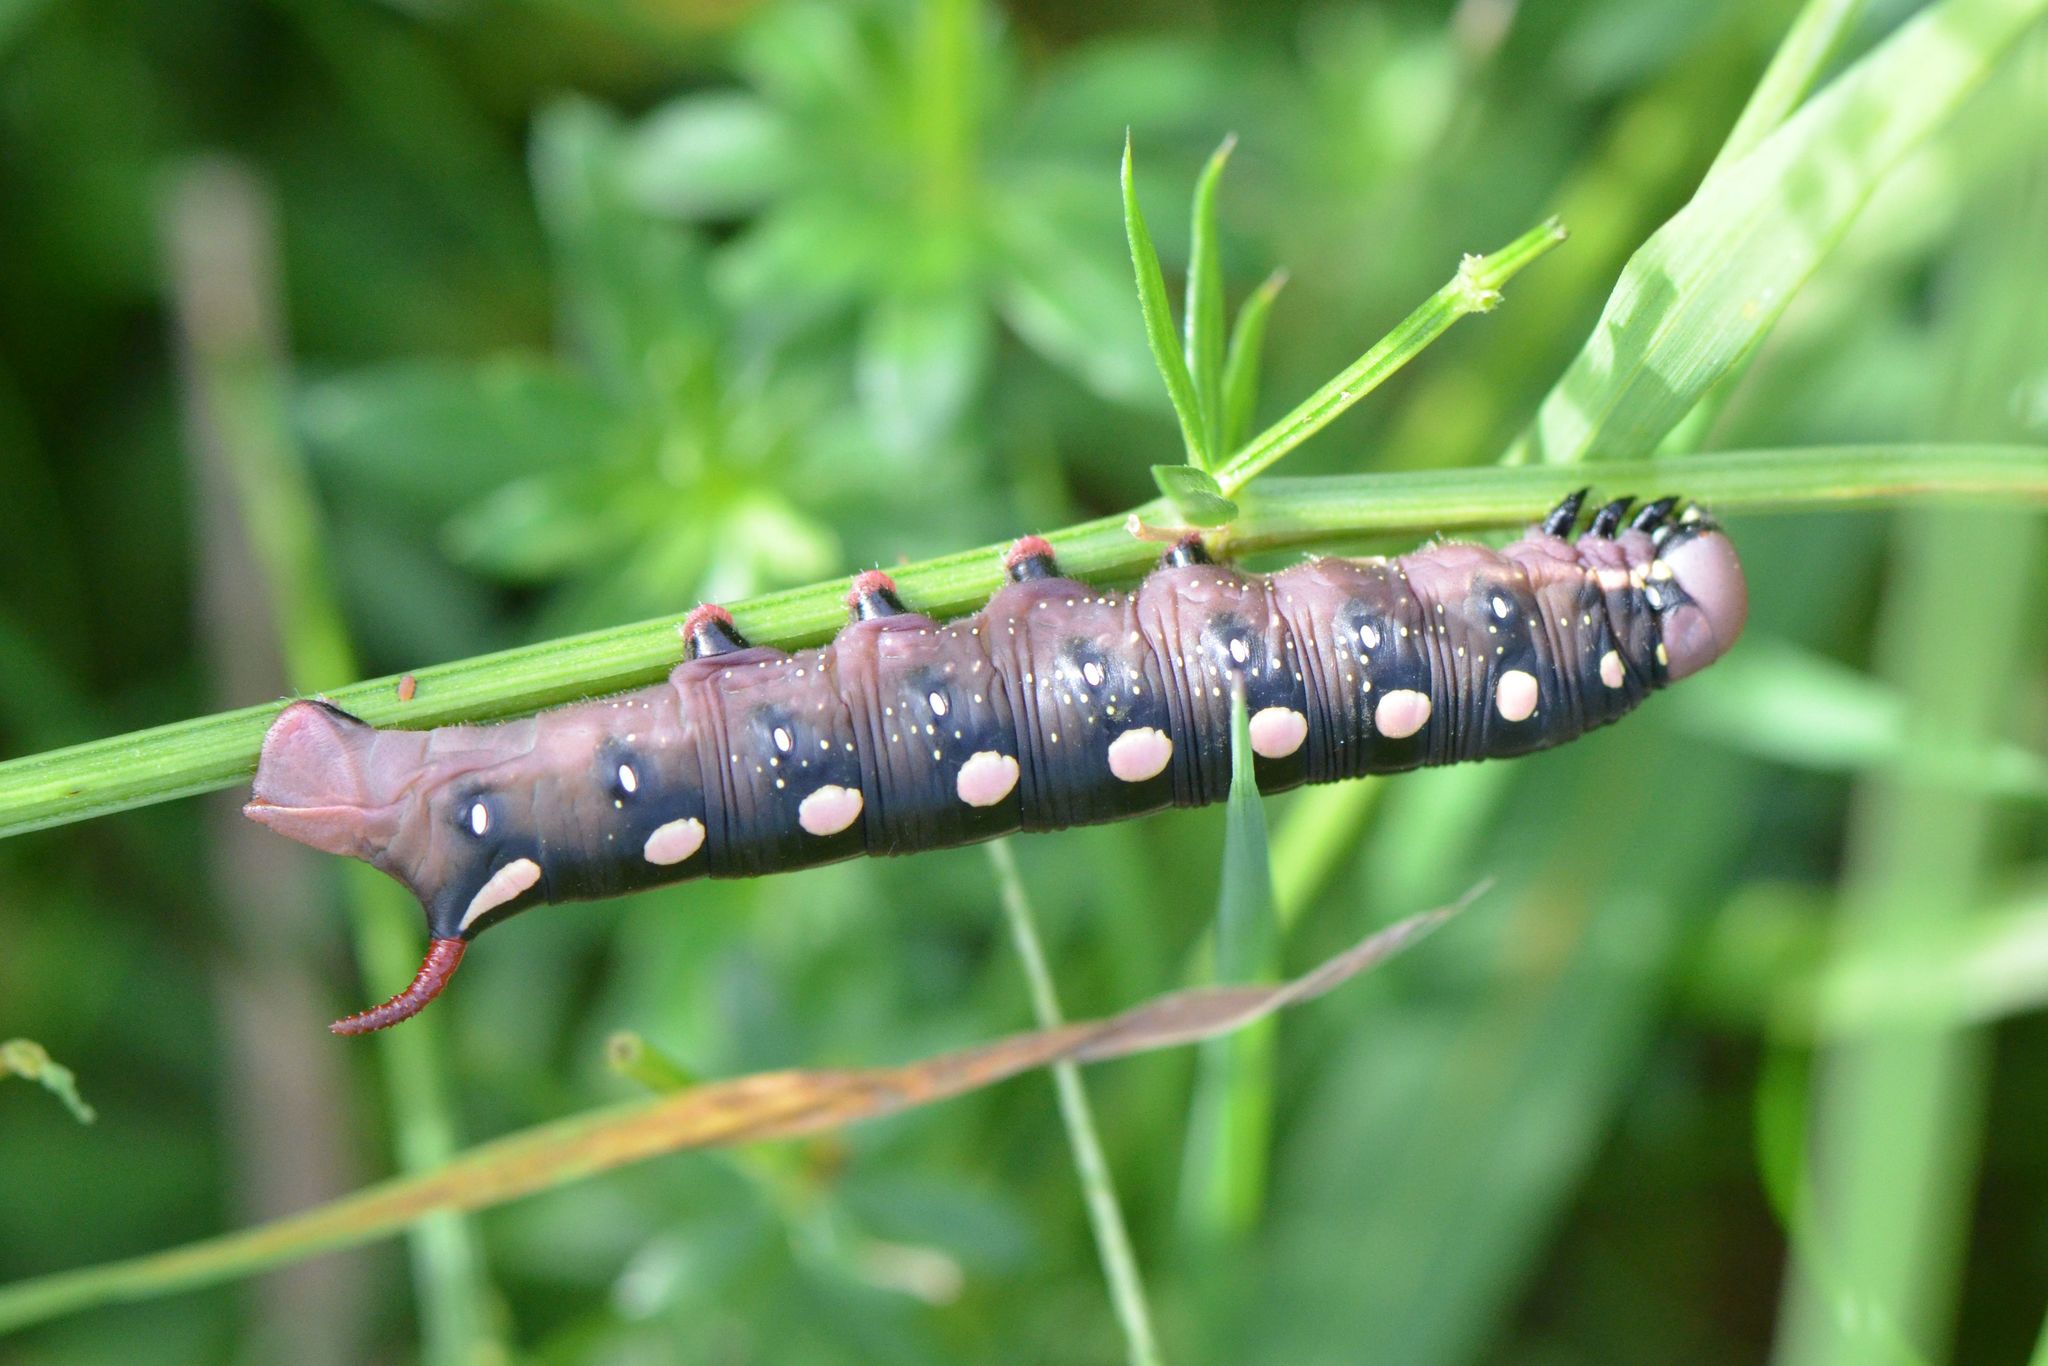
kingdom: Animalia
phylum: Arthropoda
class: Insecta
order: Lepidoptera
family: Sphingidae
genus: Hyles
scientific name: Hyles gallii
